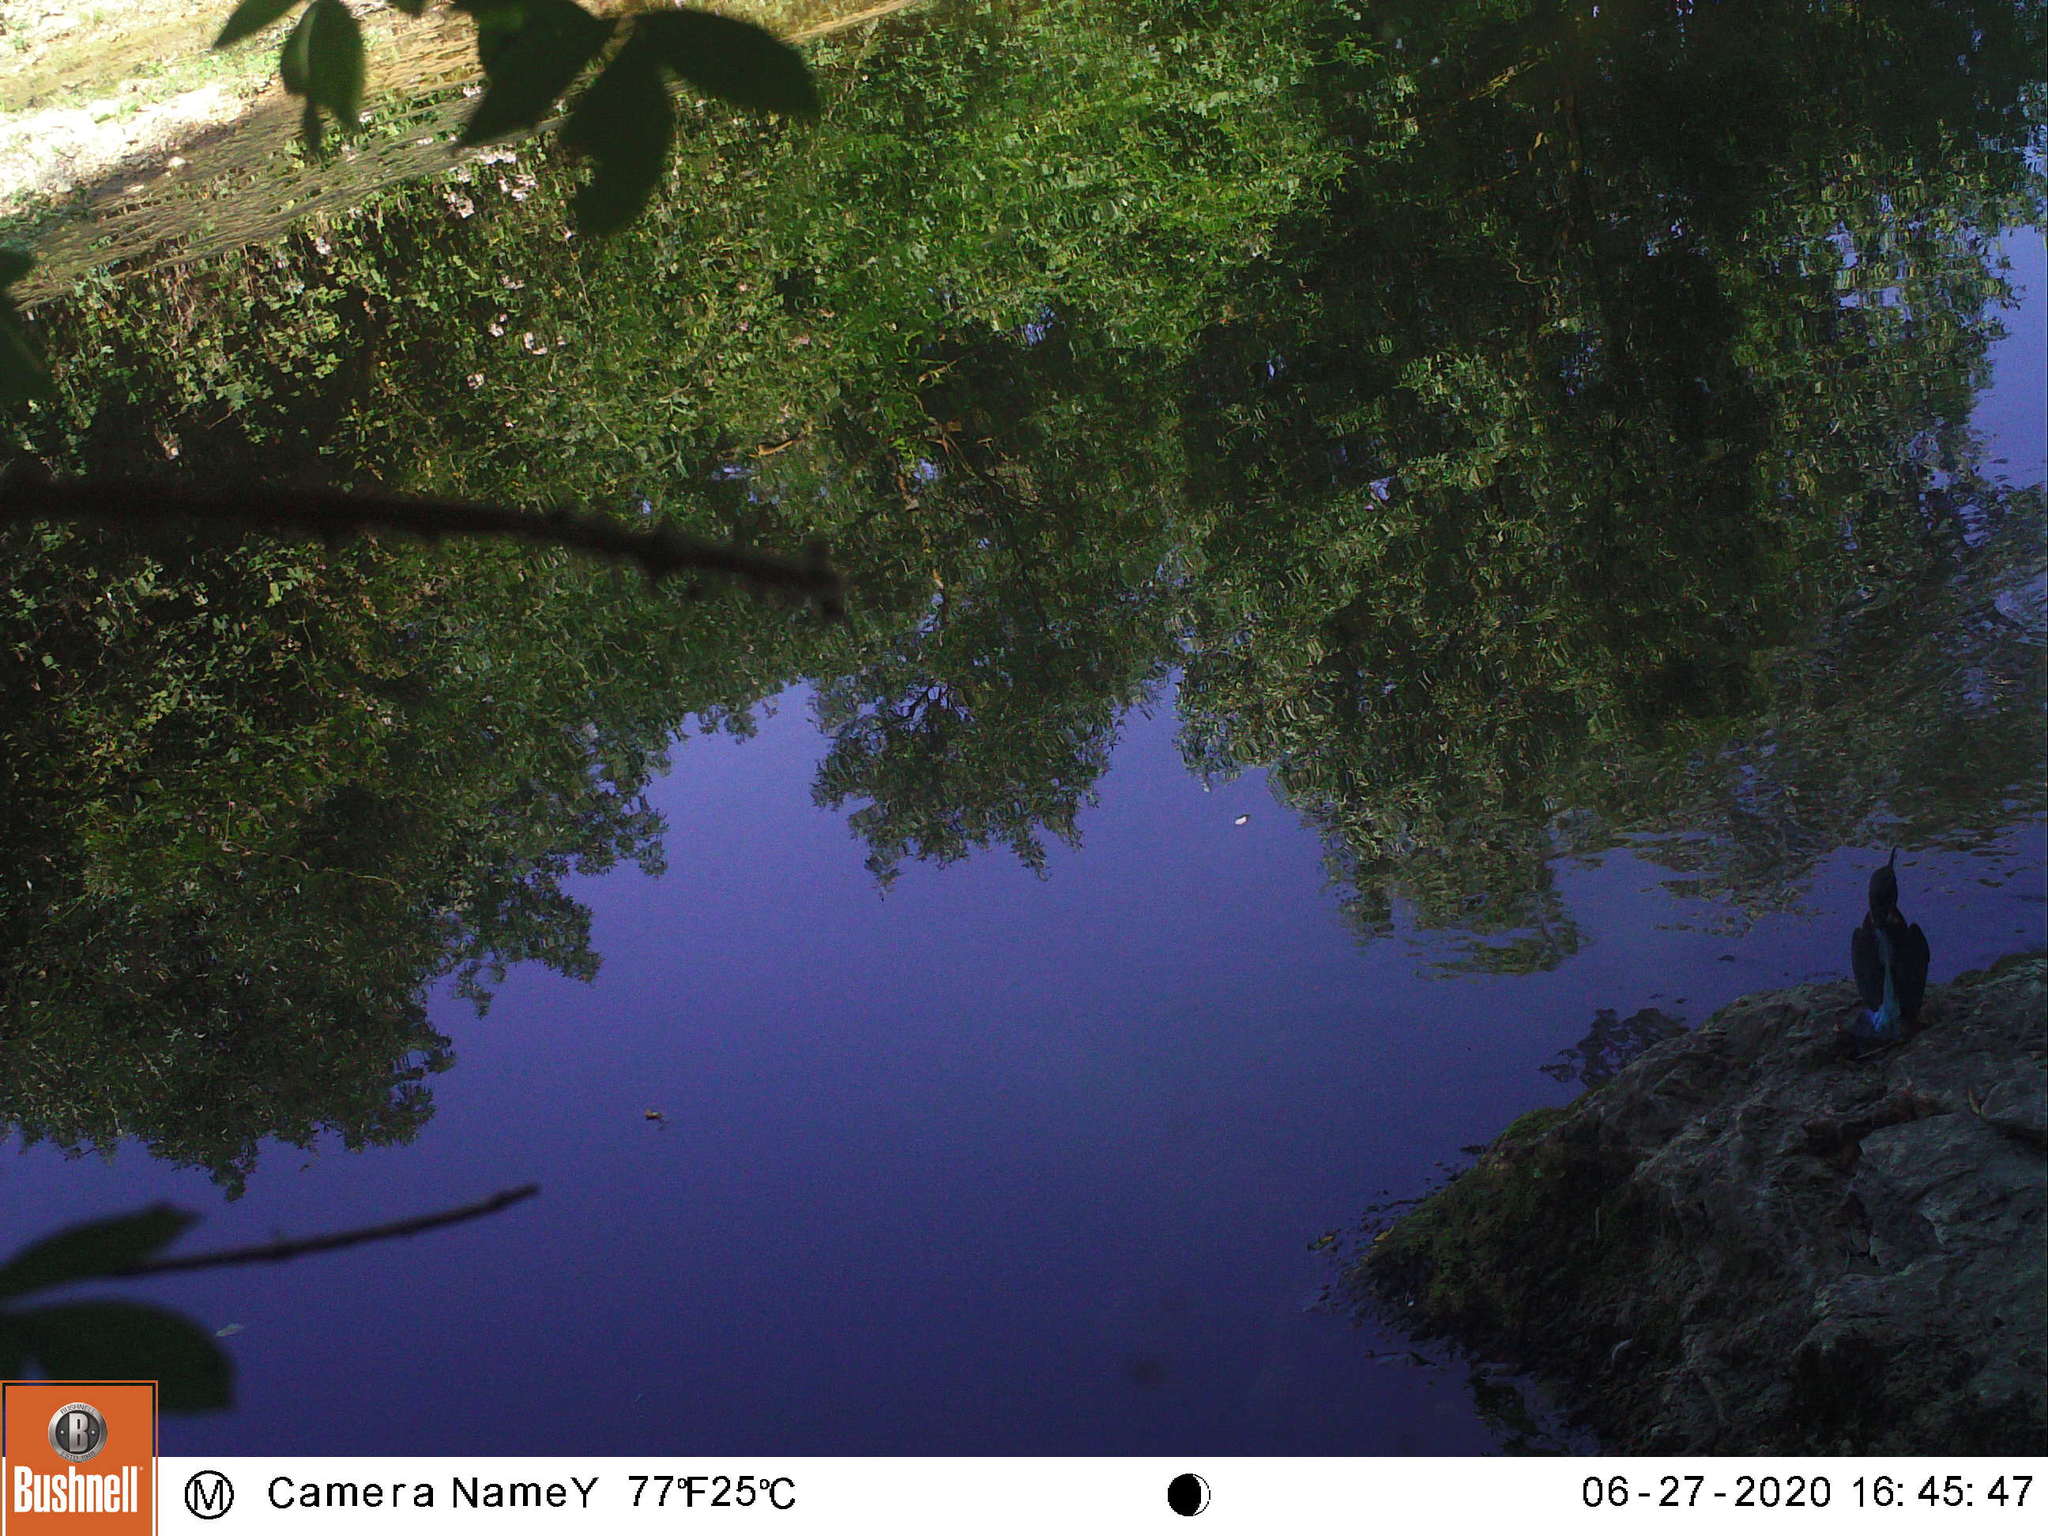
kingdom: Animalia
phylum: Chordata
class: Aves
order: Coraciiformes
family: Alcedinidae
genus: Alcedo
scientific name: Alcedo atthis
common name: Common kingfisher
